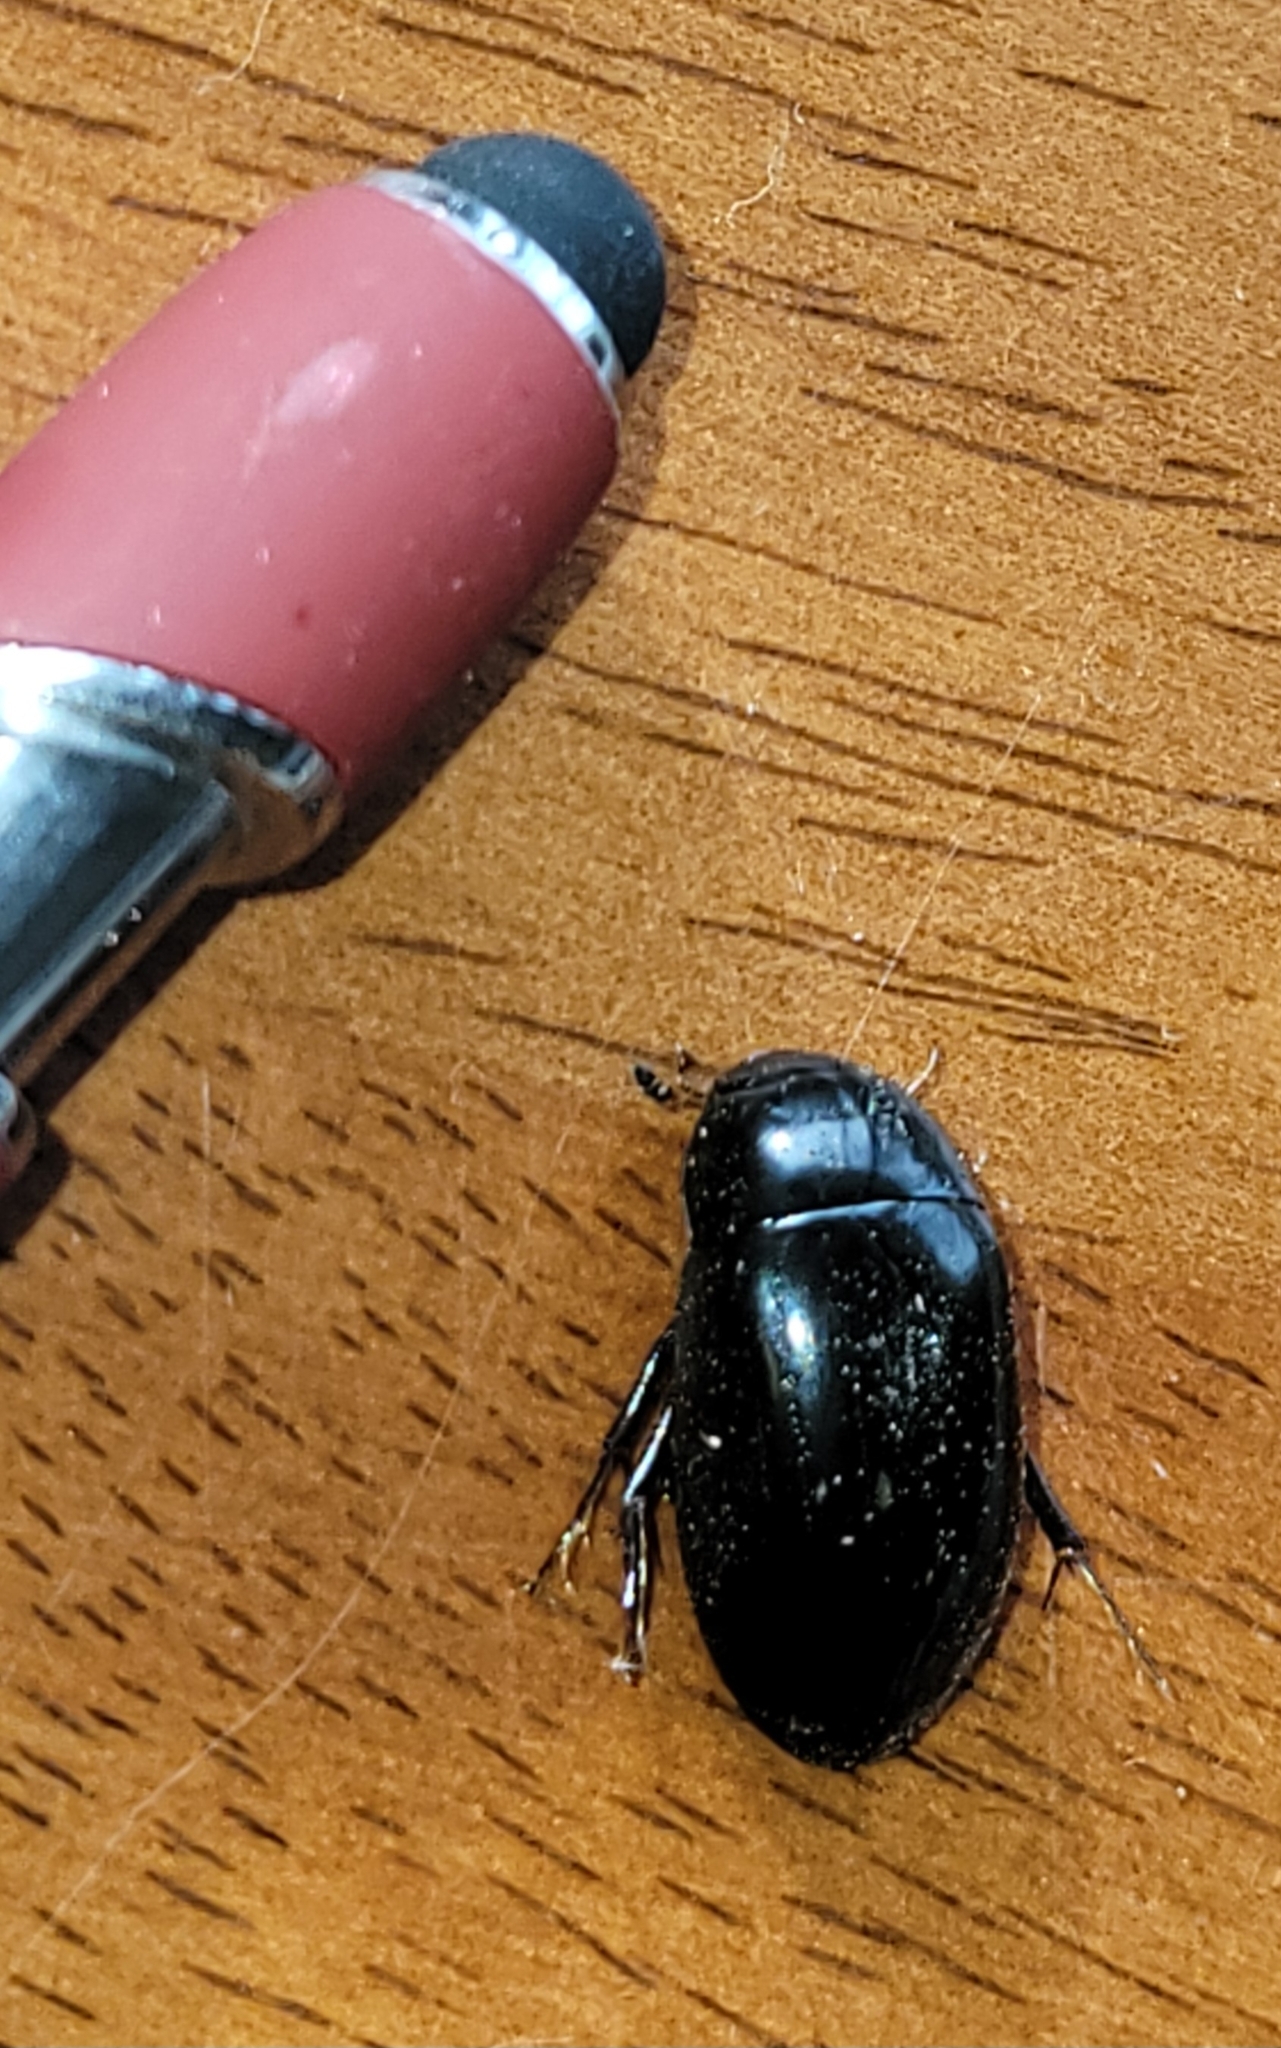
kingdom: Animalia
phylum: Arthropoda
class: Insecta
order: Coleoptera
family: Hydrophilidae
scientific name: Hydrophilidae
